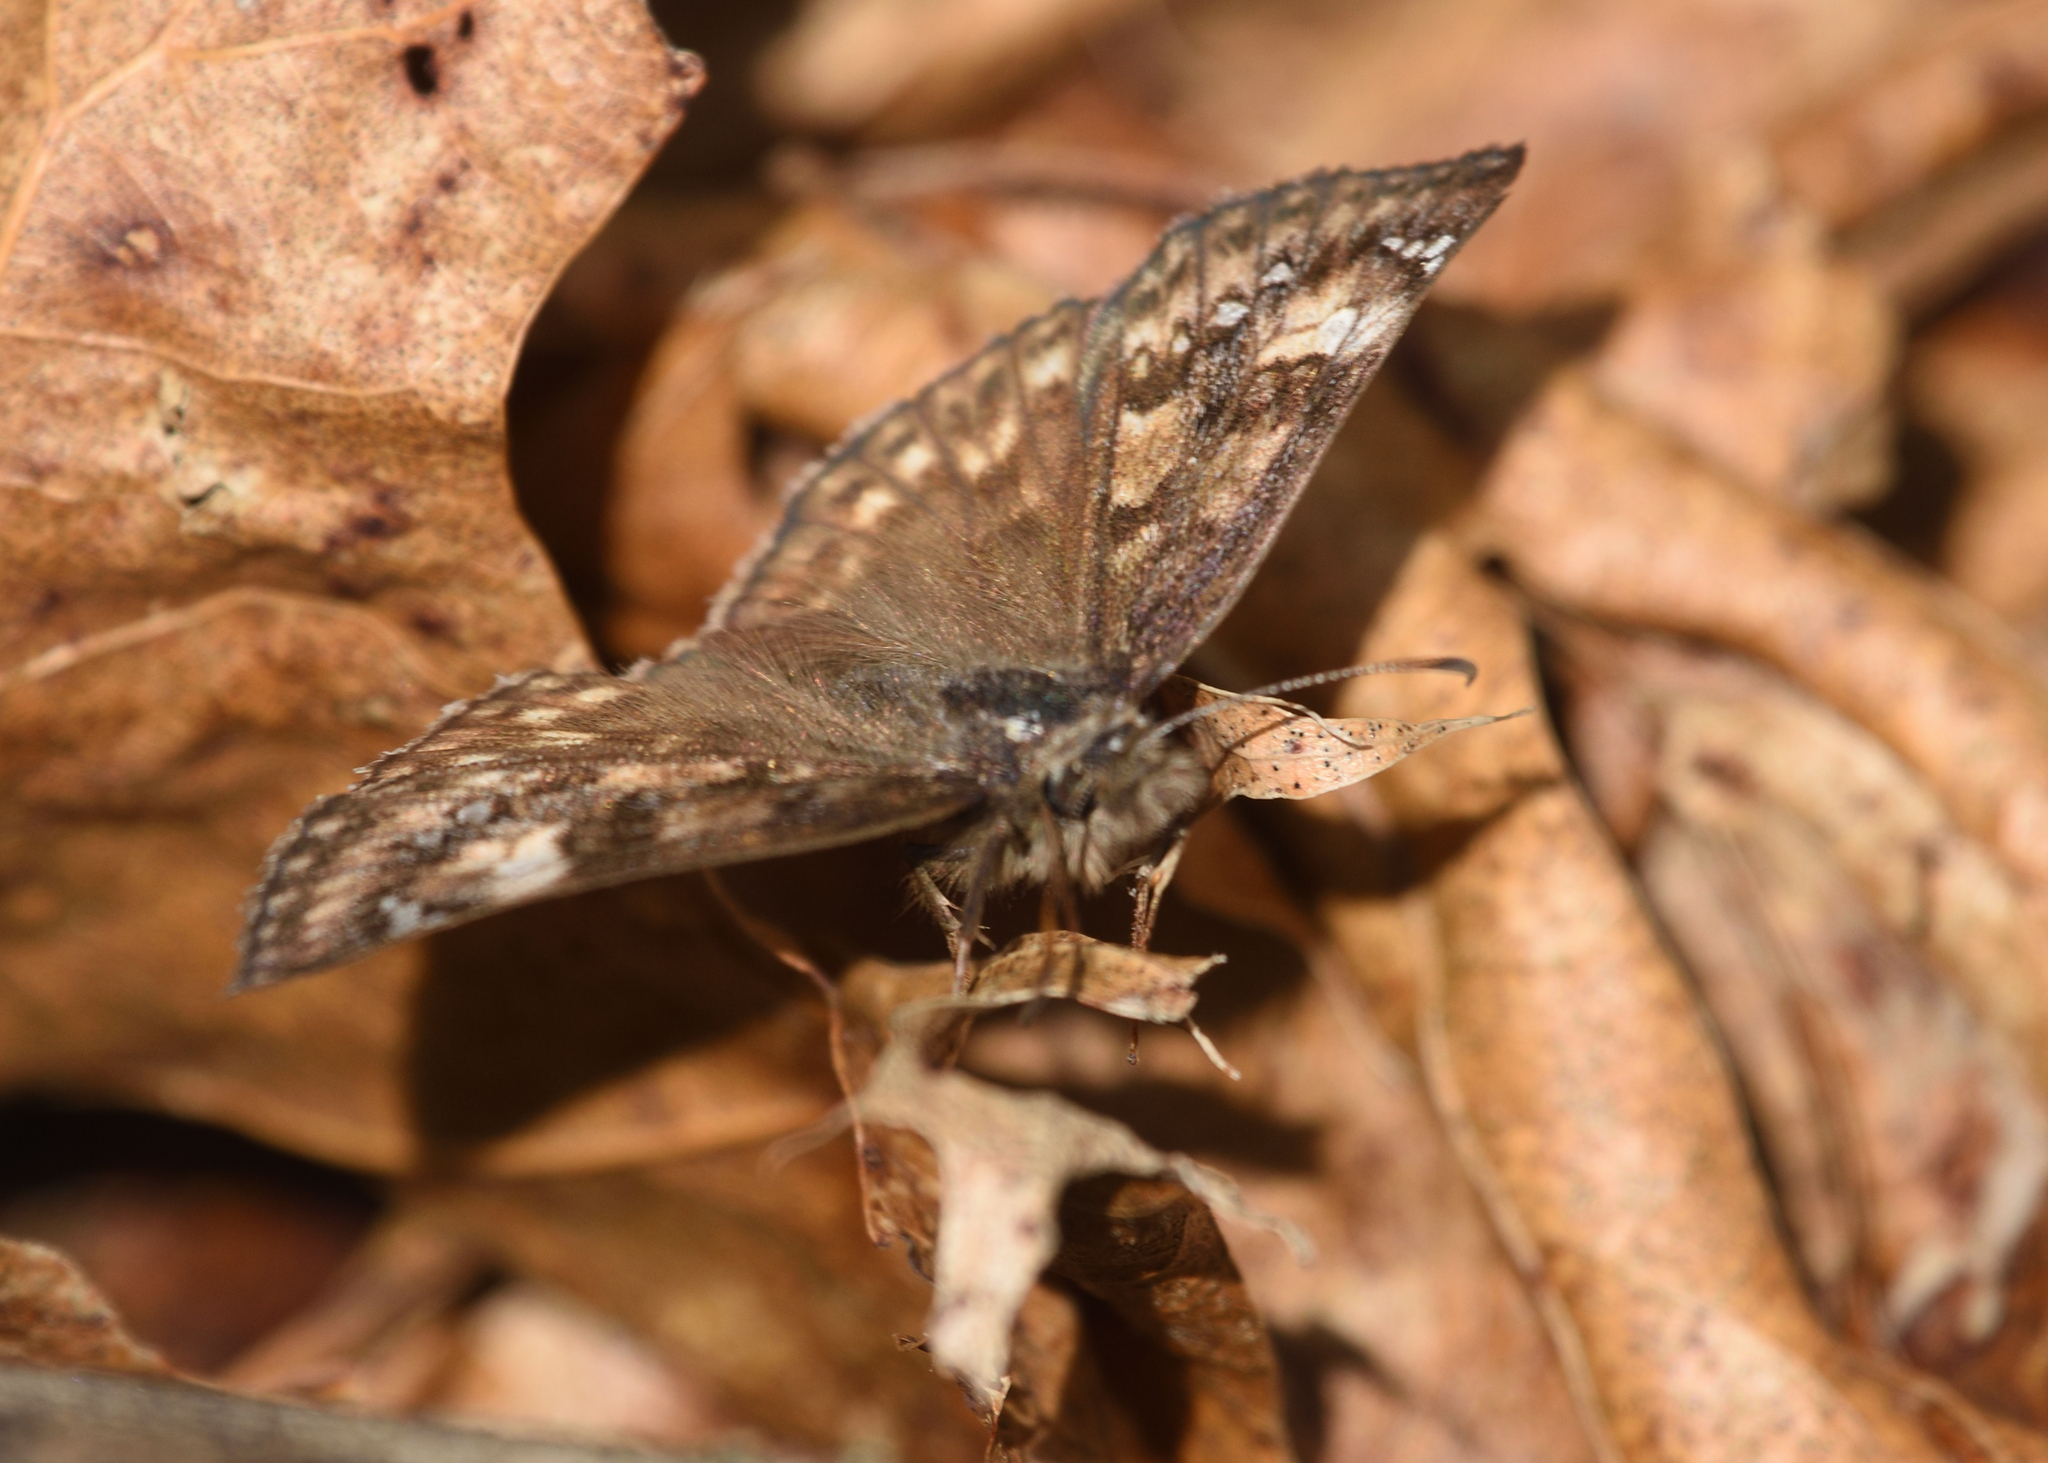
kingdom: Animalia
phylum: Arthropoda
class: Insecta
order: Lepidoptera
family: Hesperiidae
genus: Erynnis
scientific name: Erynnis juvenalis
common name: Juvenal's duskywing
